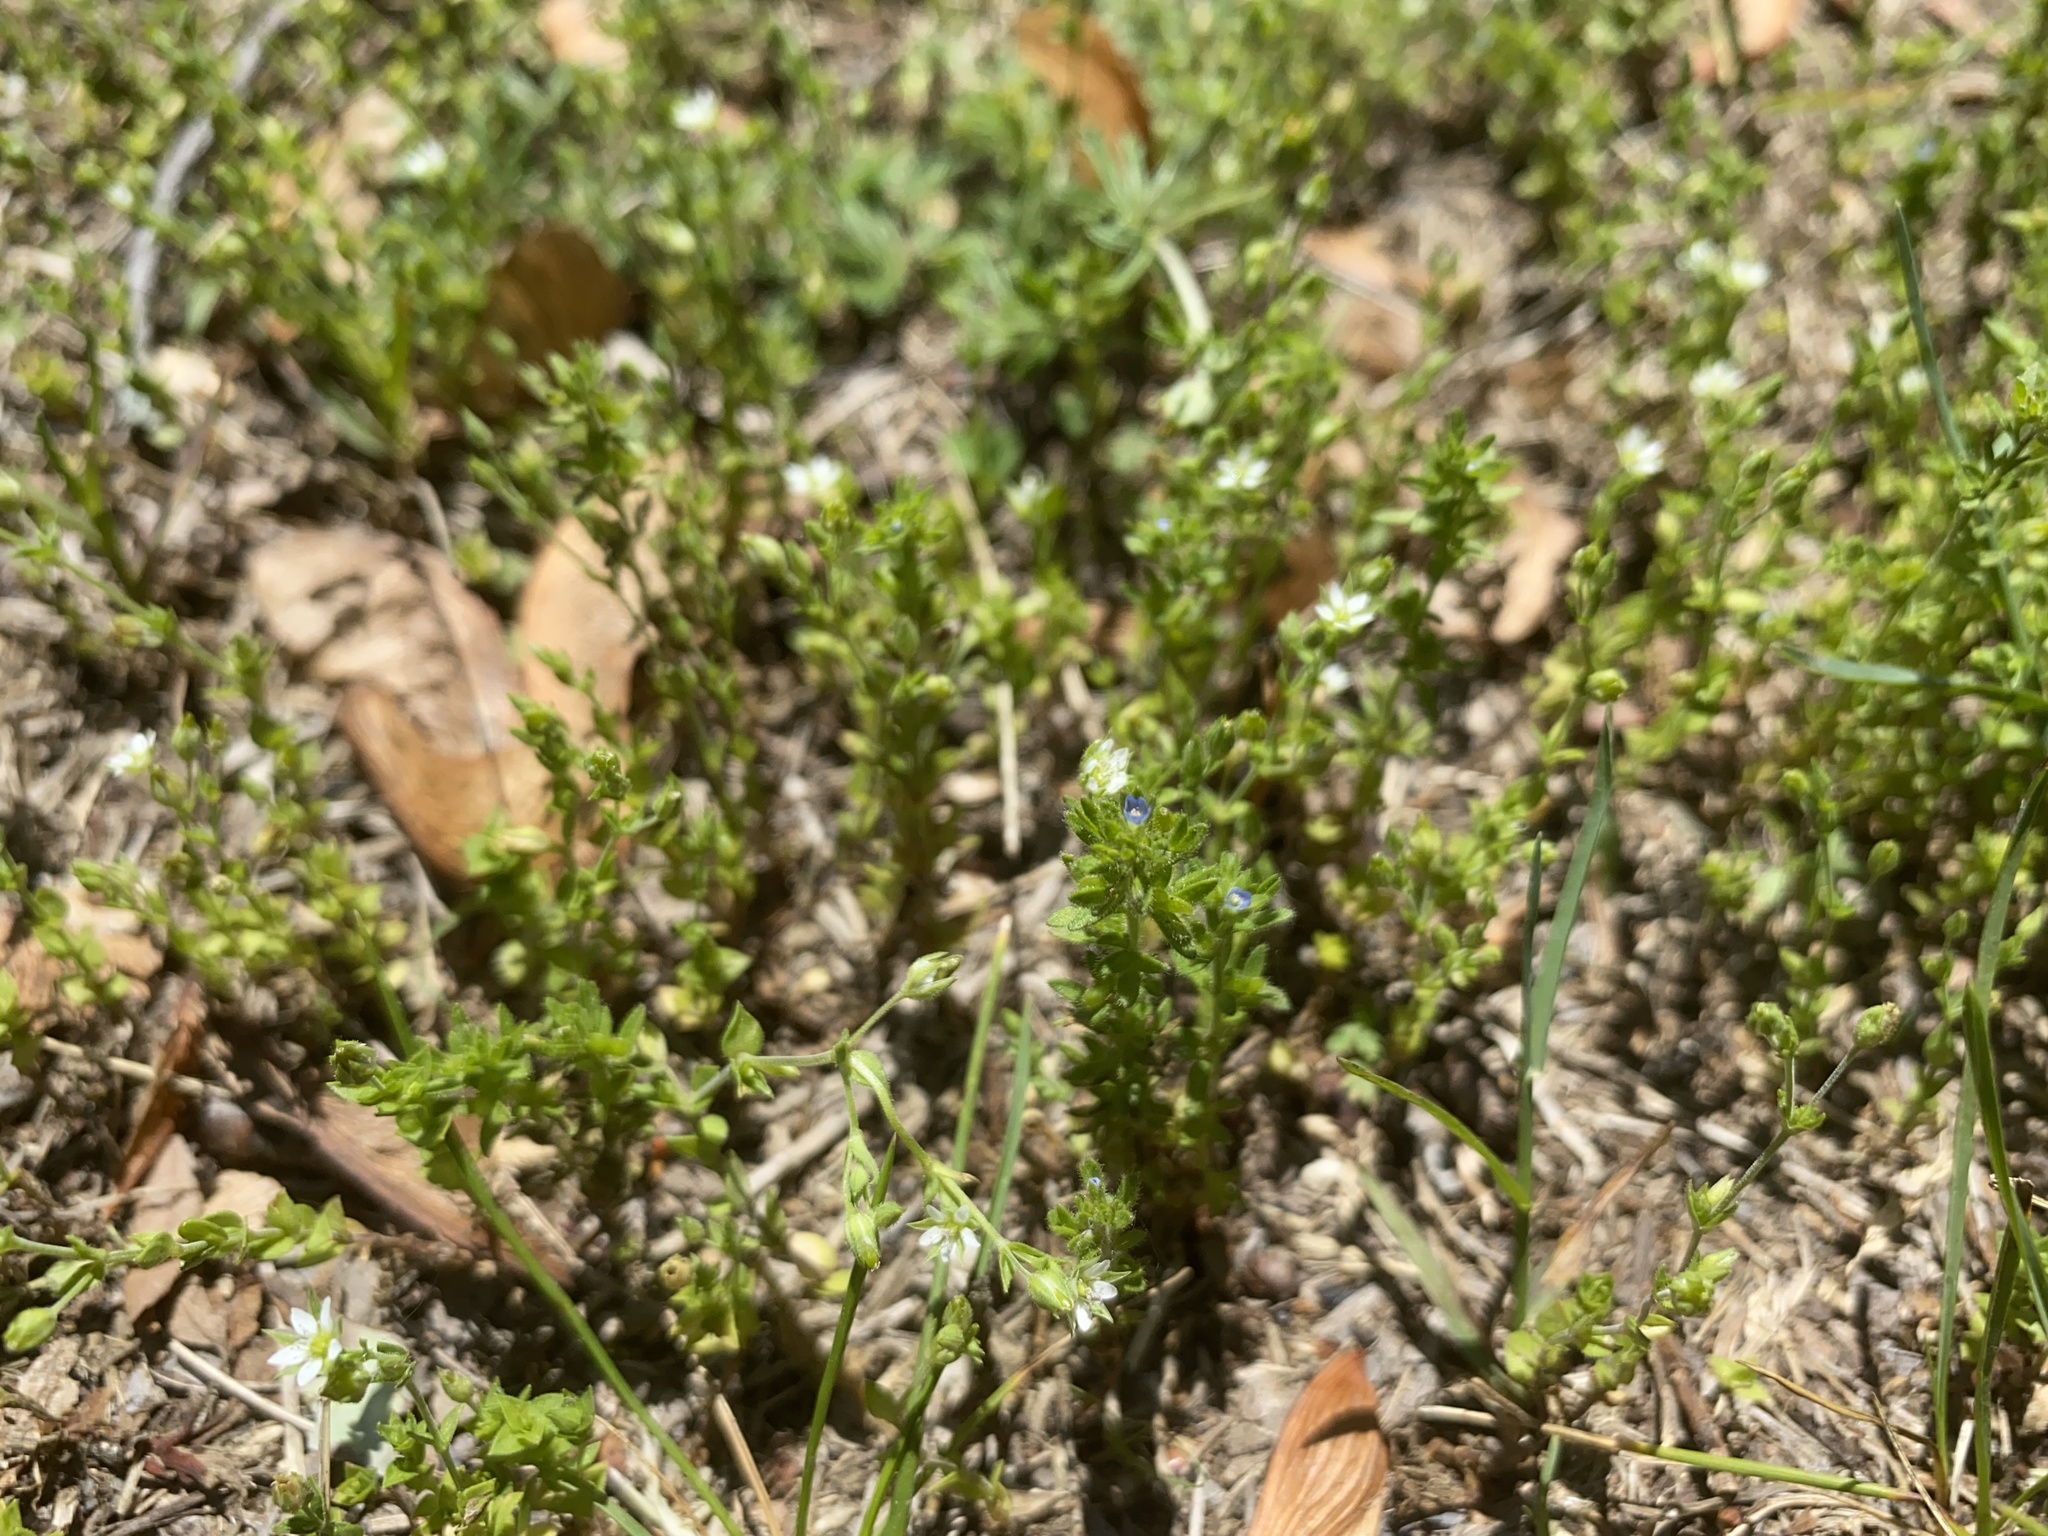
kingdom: Plantae
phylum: Tracheophyta
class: Magnoliopsida
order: Lamiales
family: Plantaginaceae
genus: Veronica
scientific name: Veronica arvensis
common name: Corn speedwell
